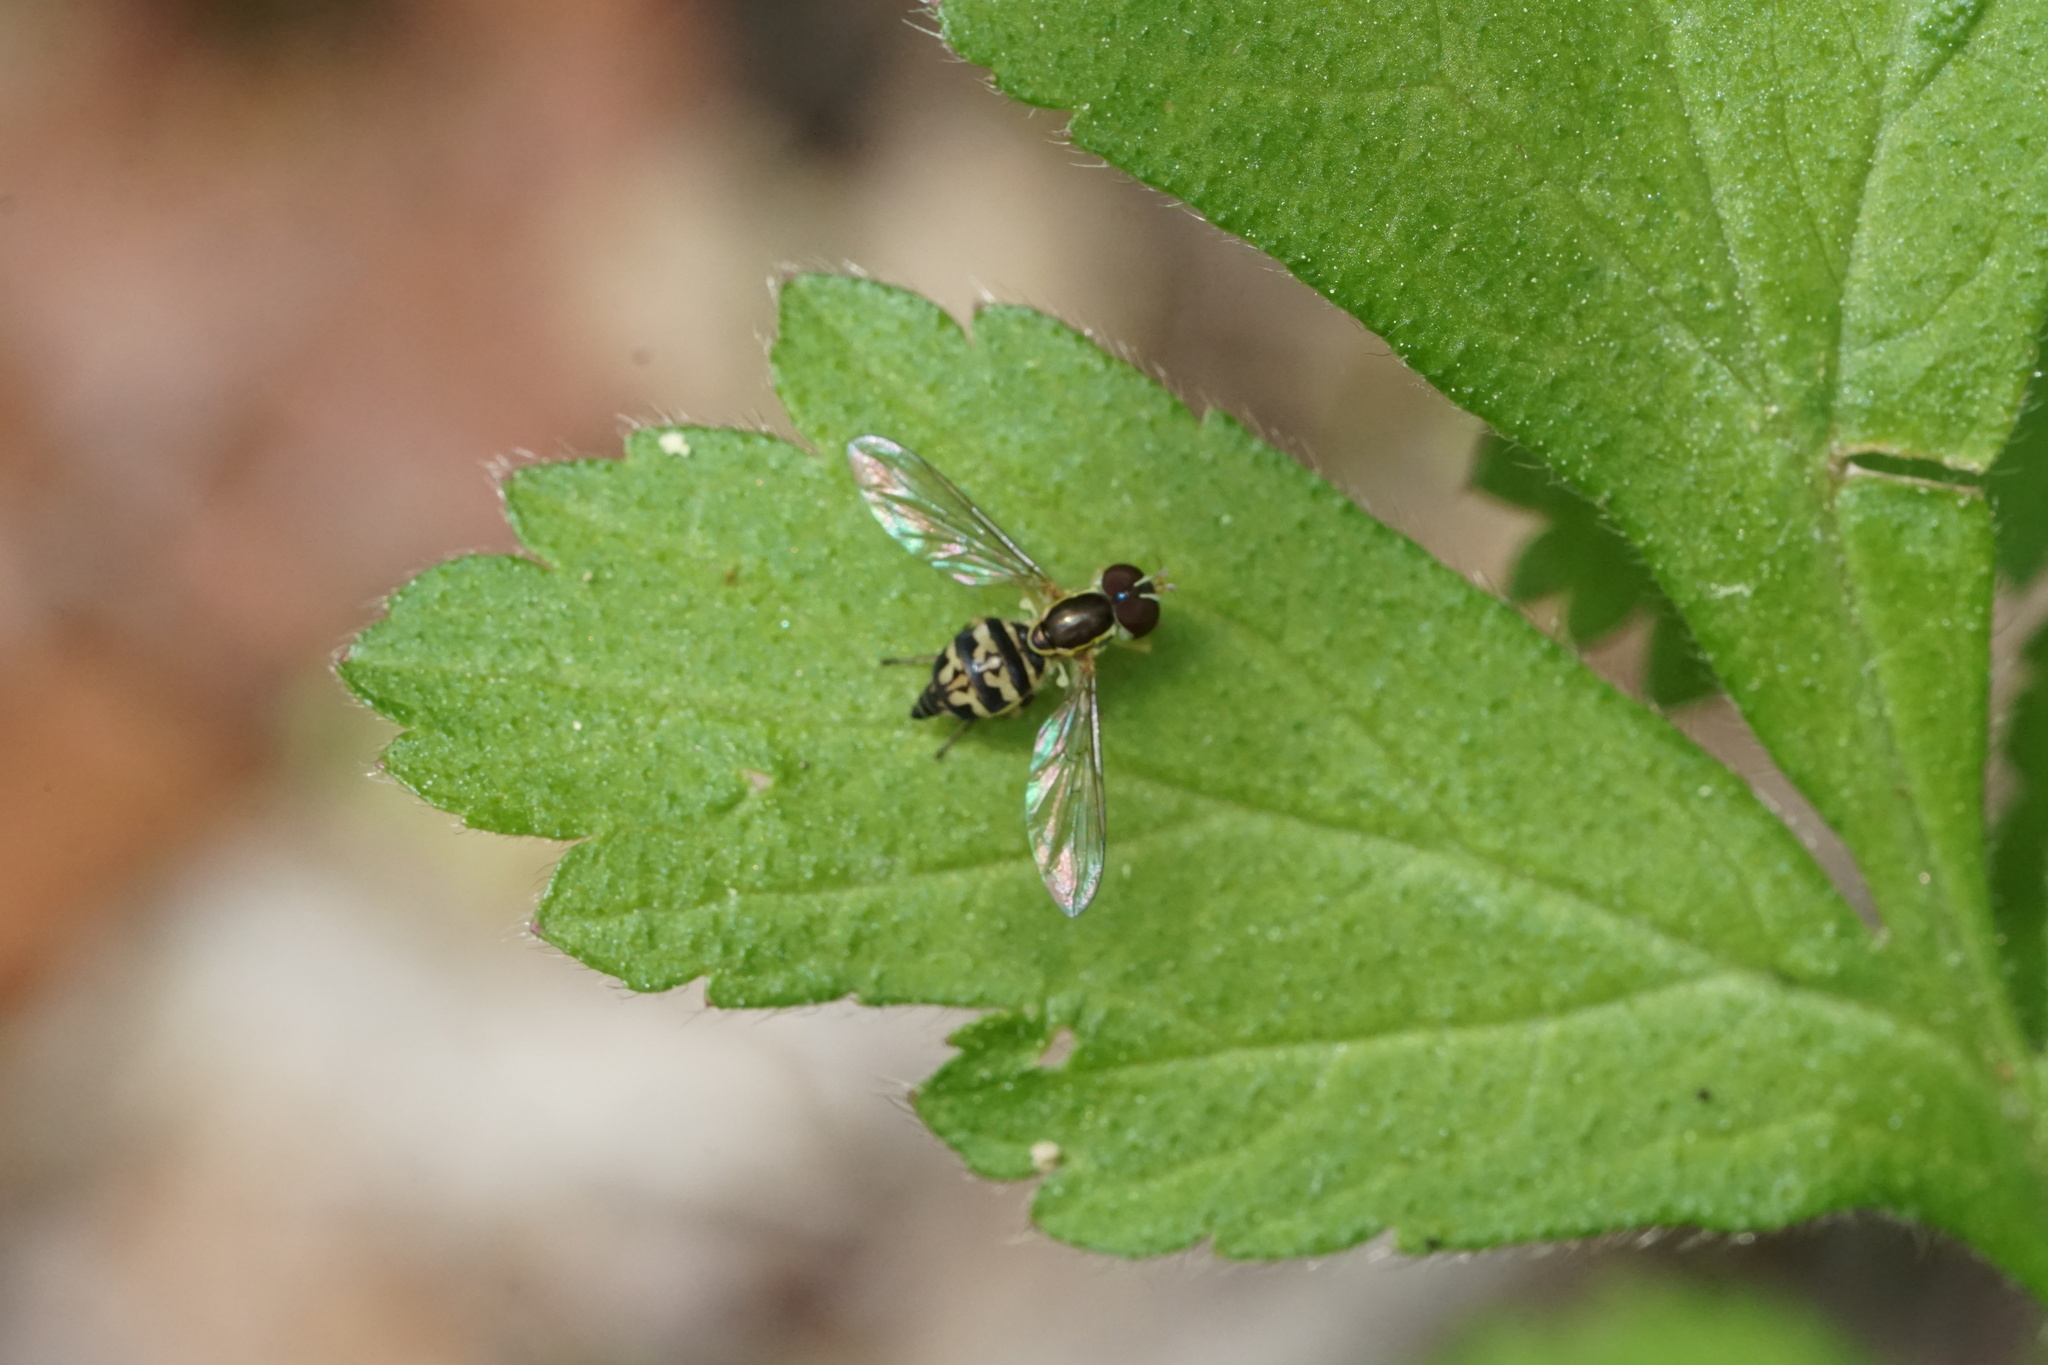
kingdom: Animalia
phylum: Arthropoda
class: Insecta
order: Diptera
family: Syrphidae
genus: Toxomerus
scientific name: Toxomerus geminatus
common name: Eastern calligrapher
